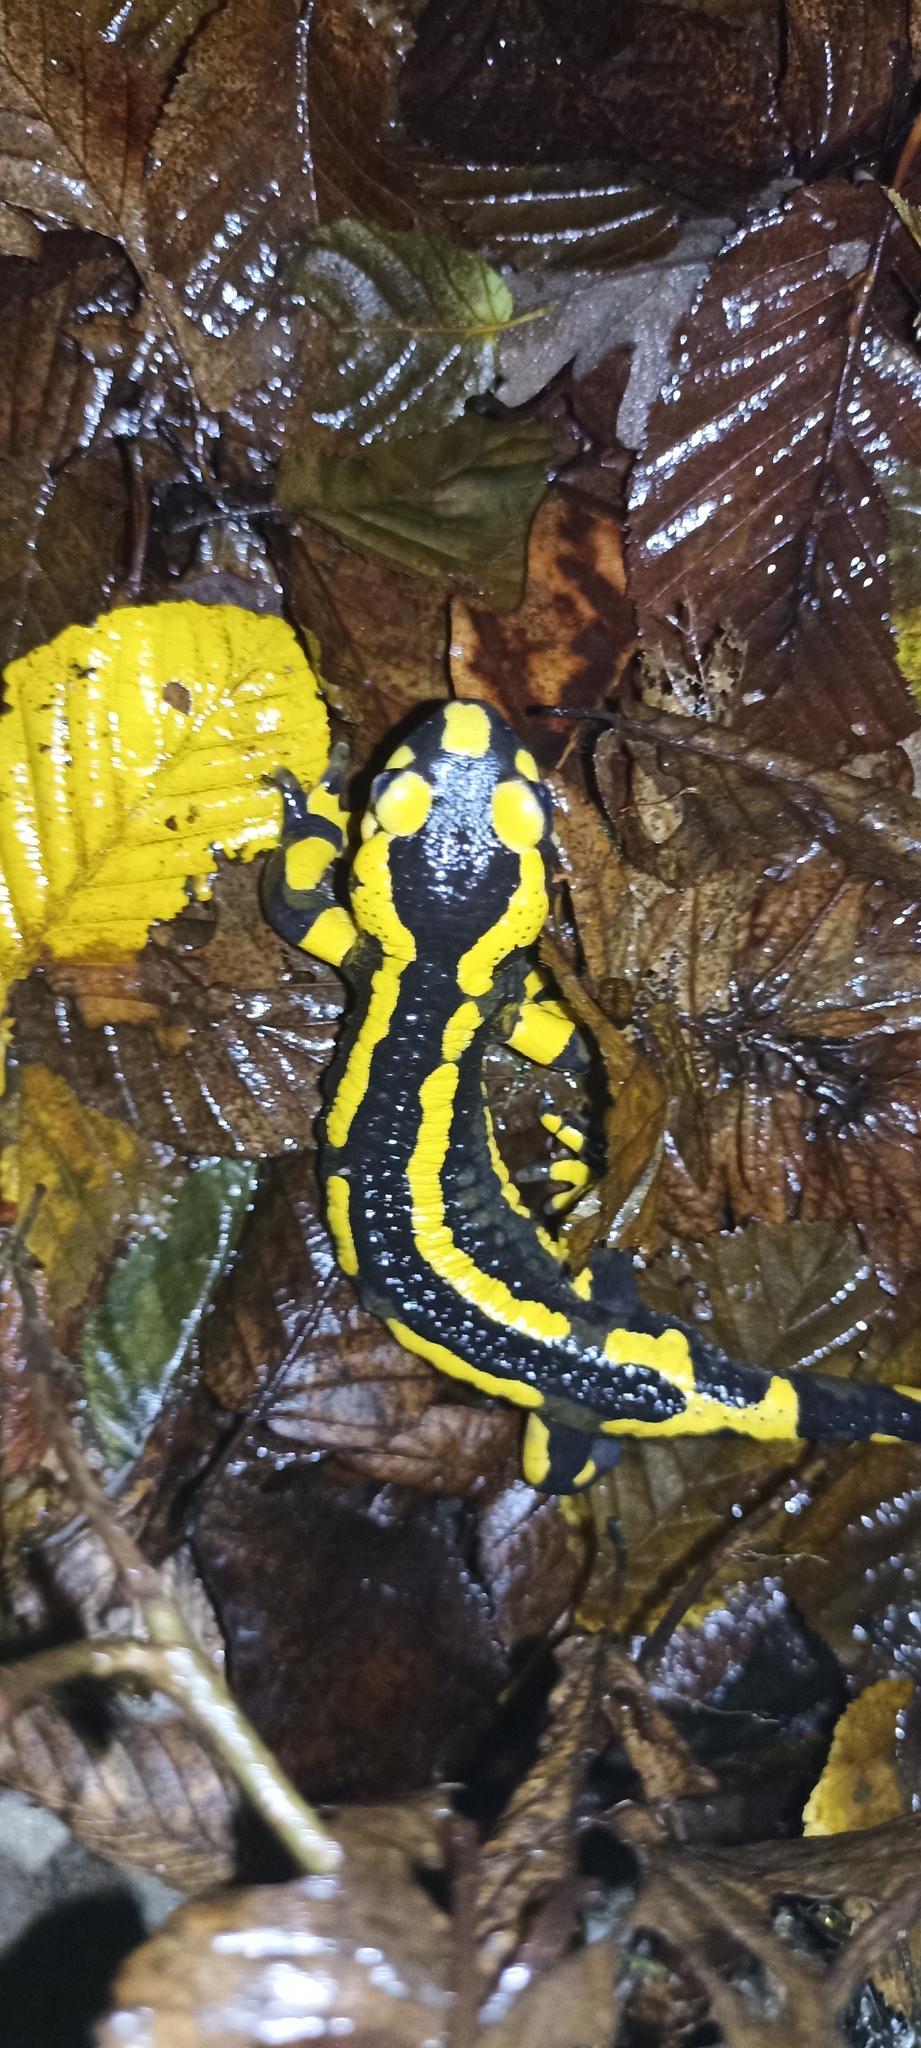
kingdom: Animalia
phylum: Chordata
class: Amphibia
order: Caudata
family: Salamandridae
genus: Salamandra
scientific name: Salamandra salamandra
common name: Fire salamander
